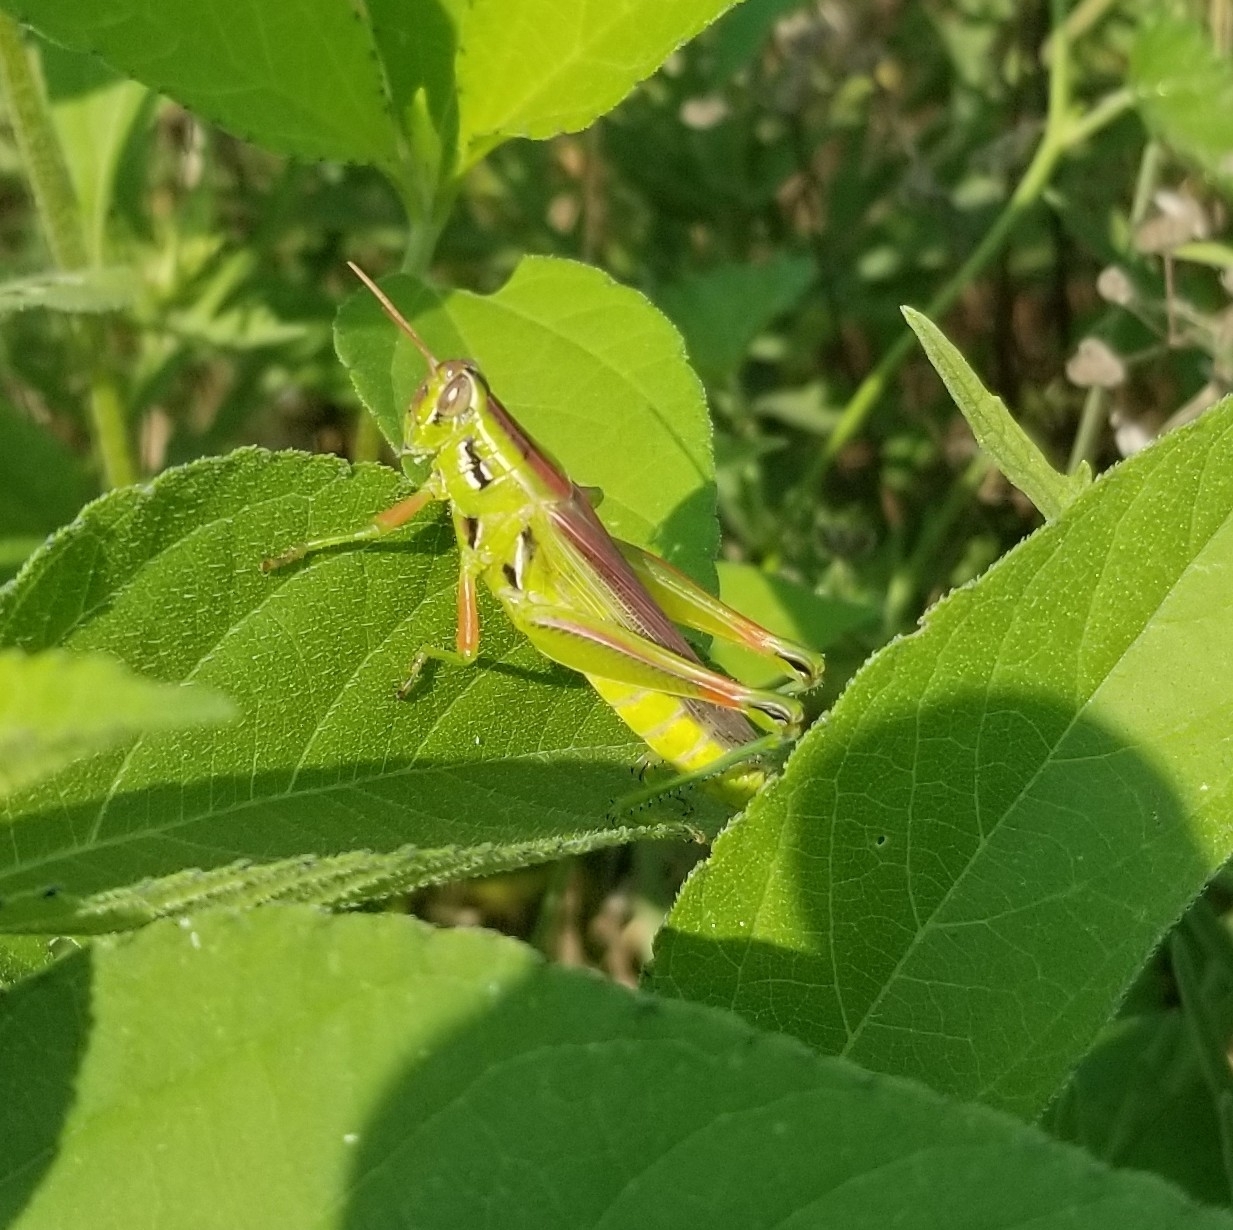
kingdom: Animalia
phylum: Arthropoda
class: Insecta
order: Orthoptera
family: Acrididae
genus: Hesperotettix
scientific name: Hesperotettix viridis
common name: Meadow purple-striped grasshopper
